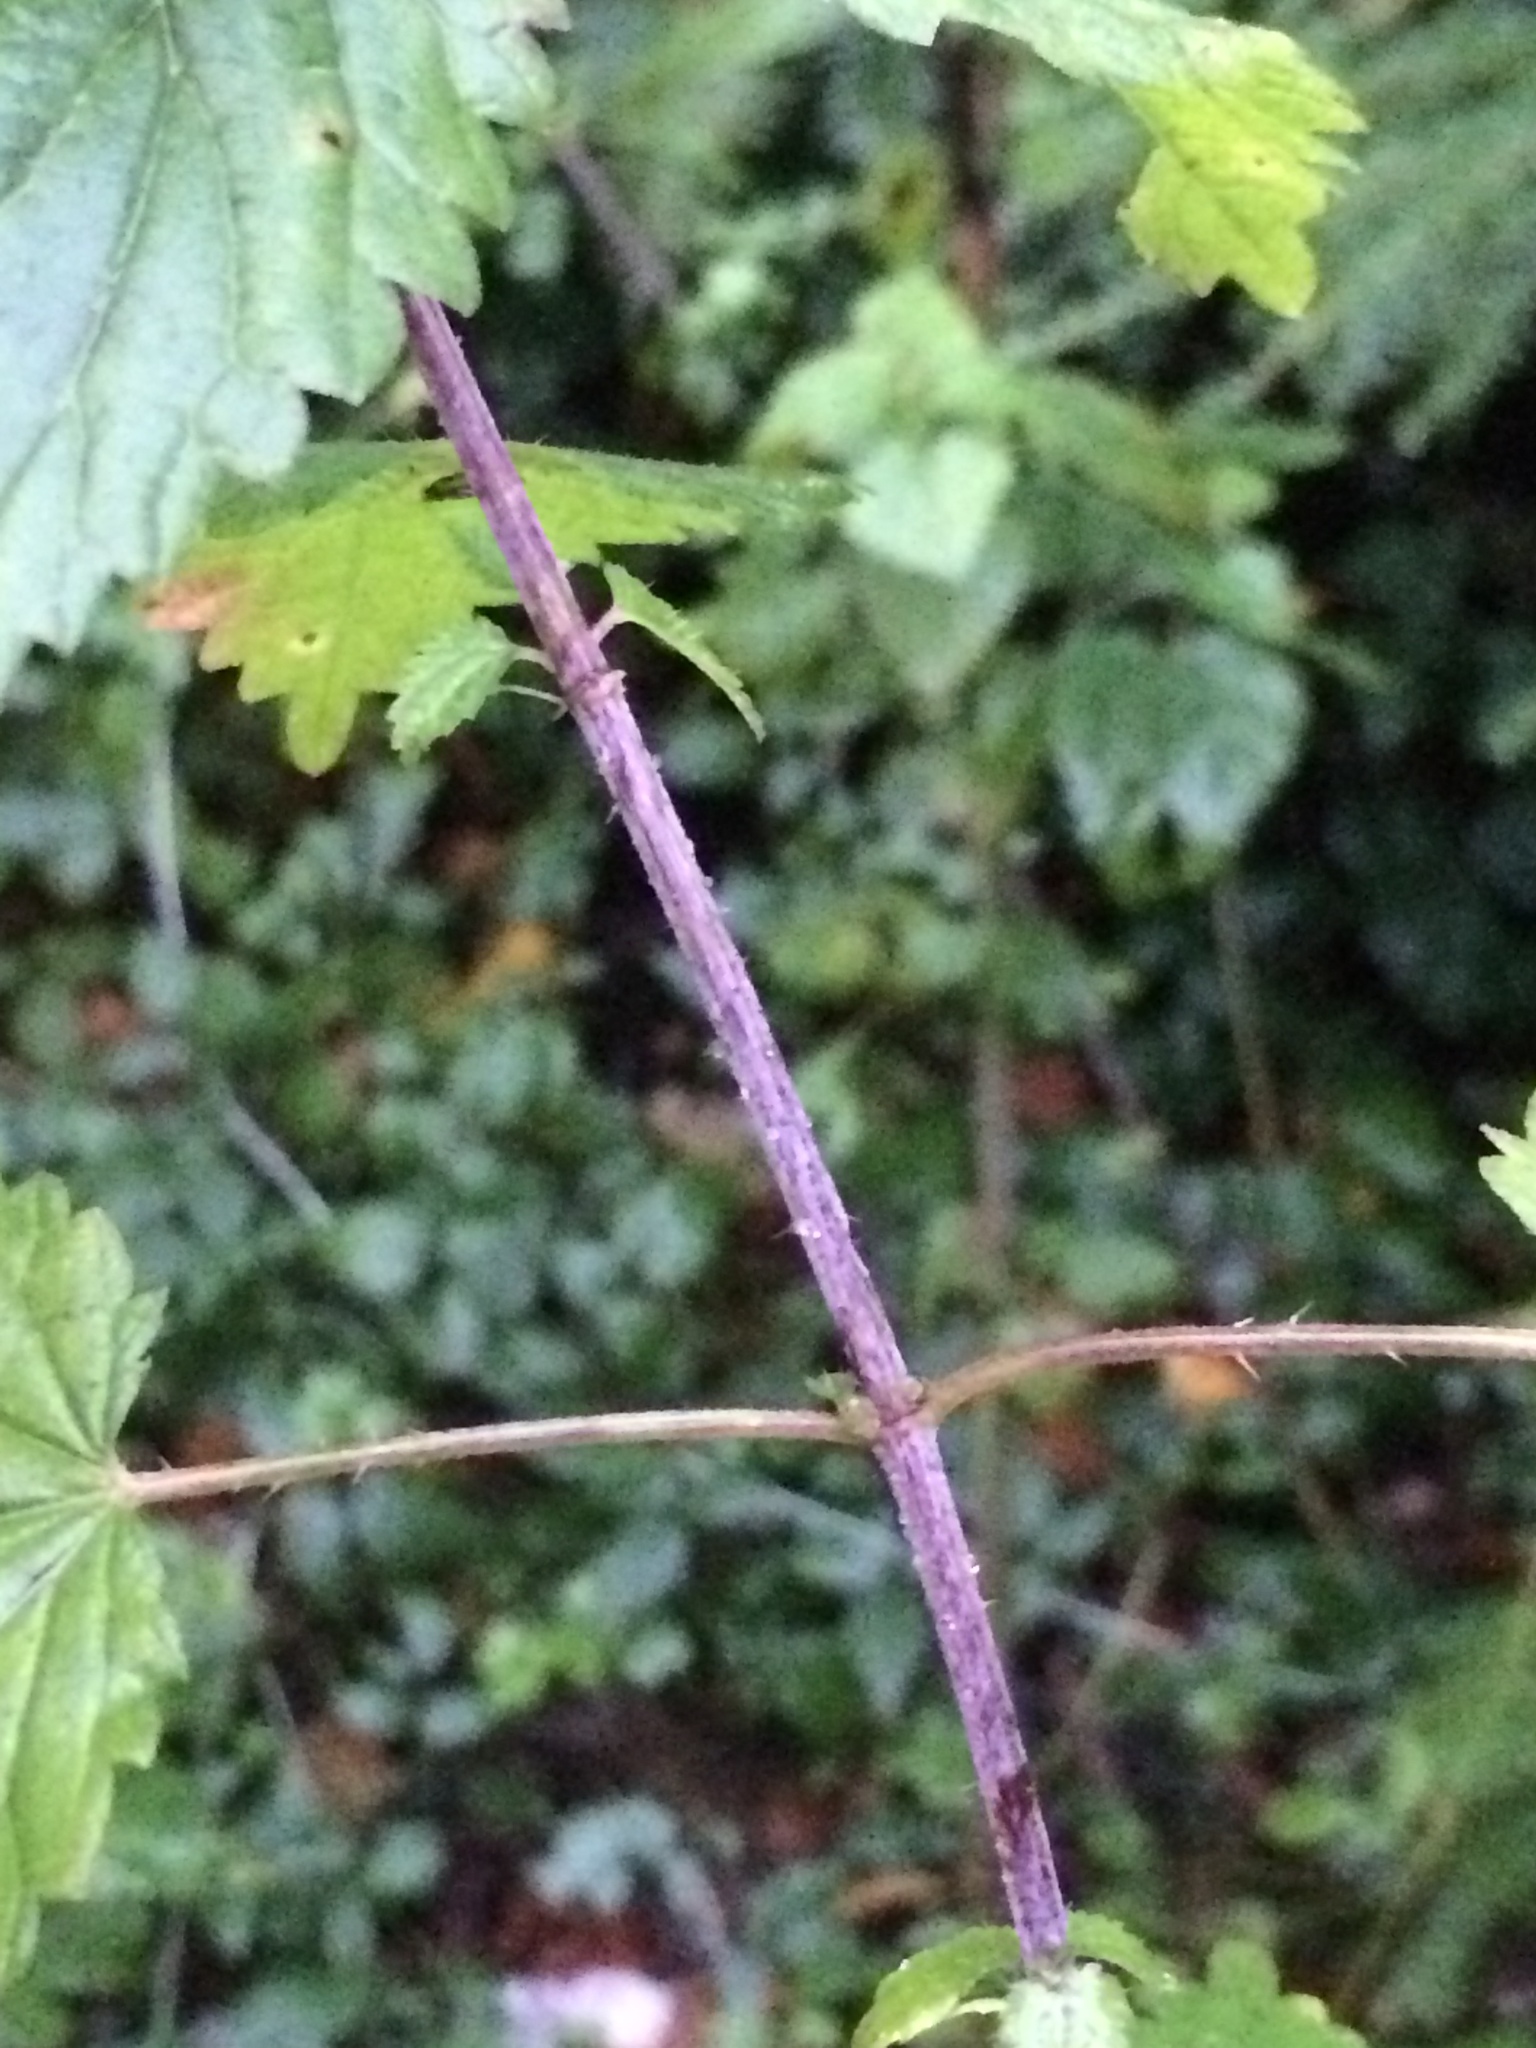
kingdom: Plantae
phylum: Tracheophyta
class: Magnoliopsida
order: Rosales
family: Urticaceae
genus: Urtica
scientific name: Urtica dioica
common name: Common nettle
